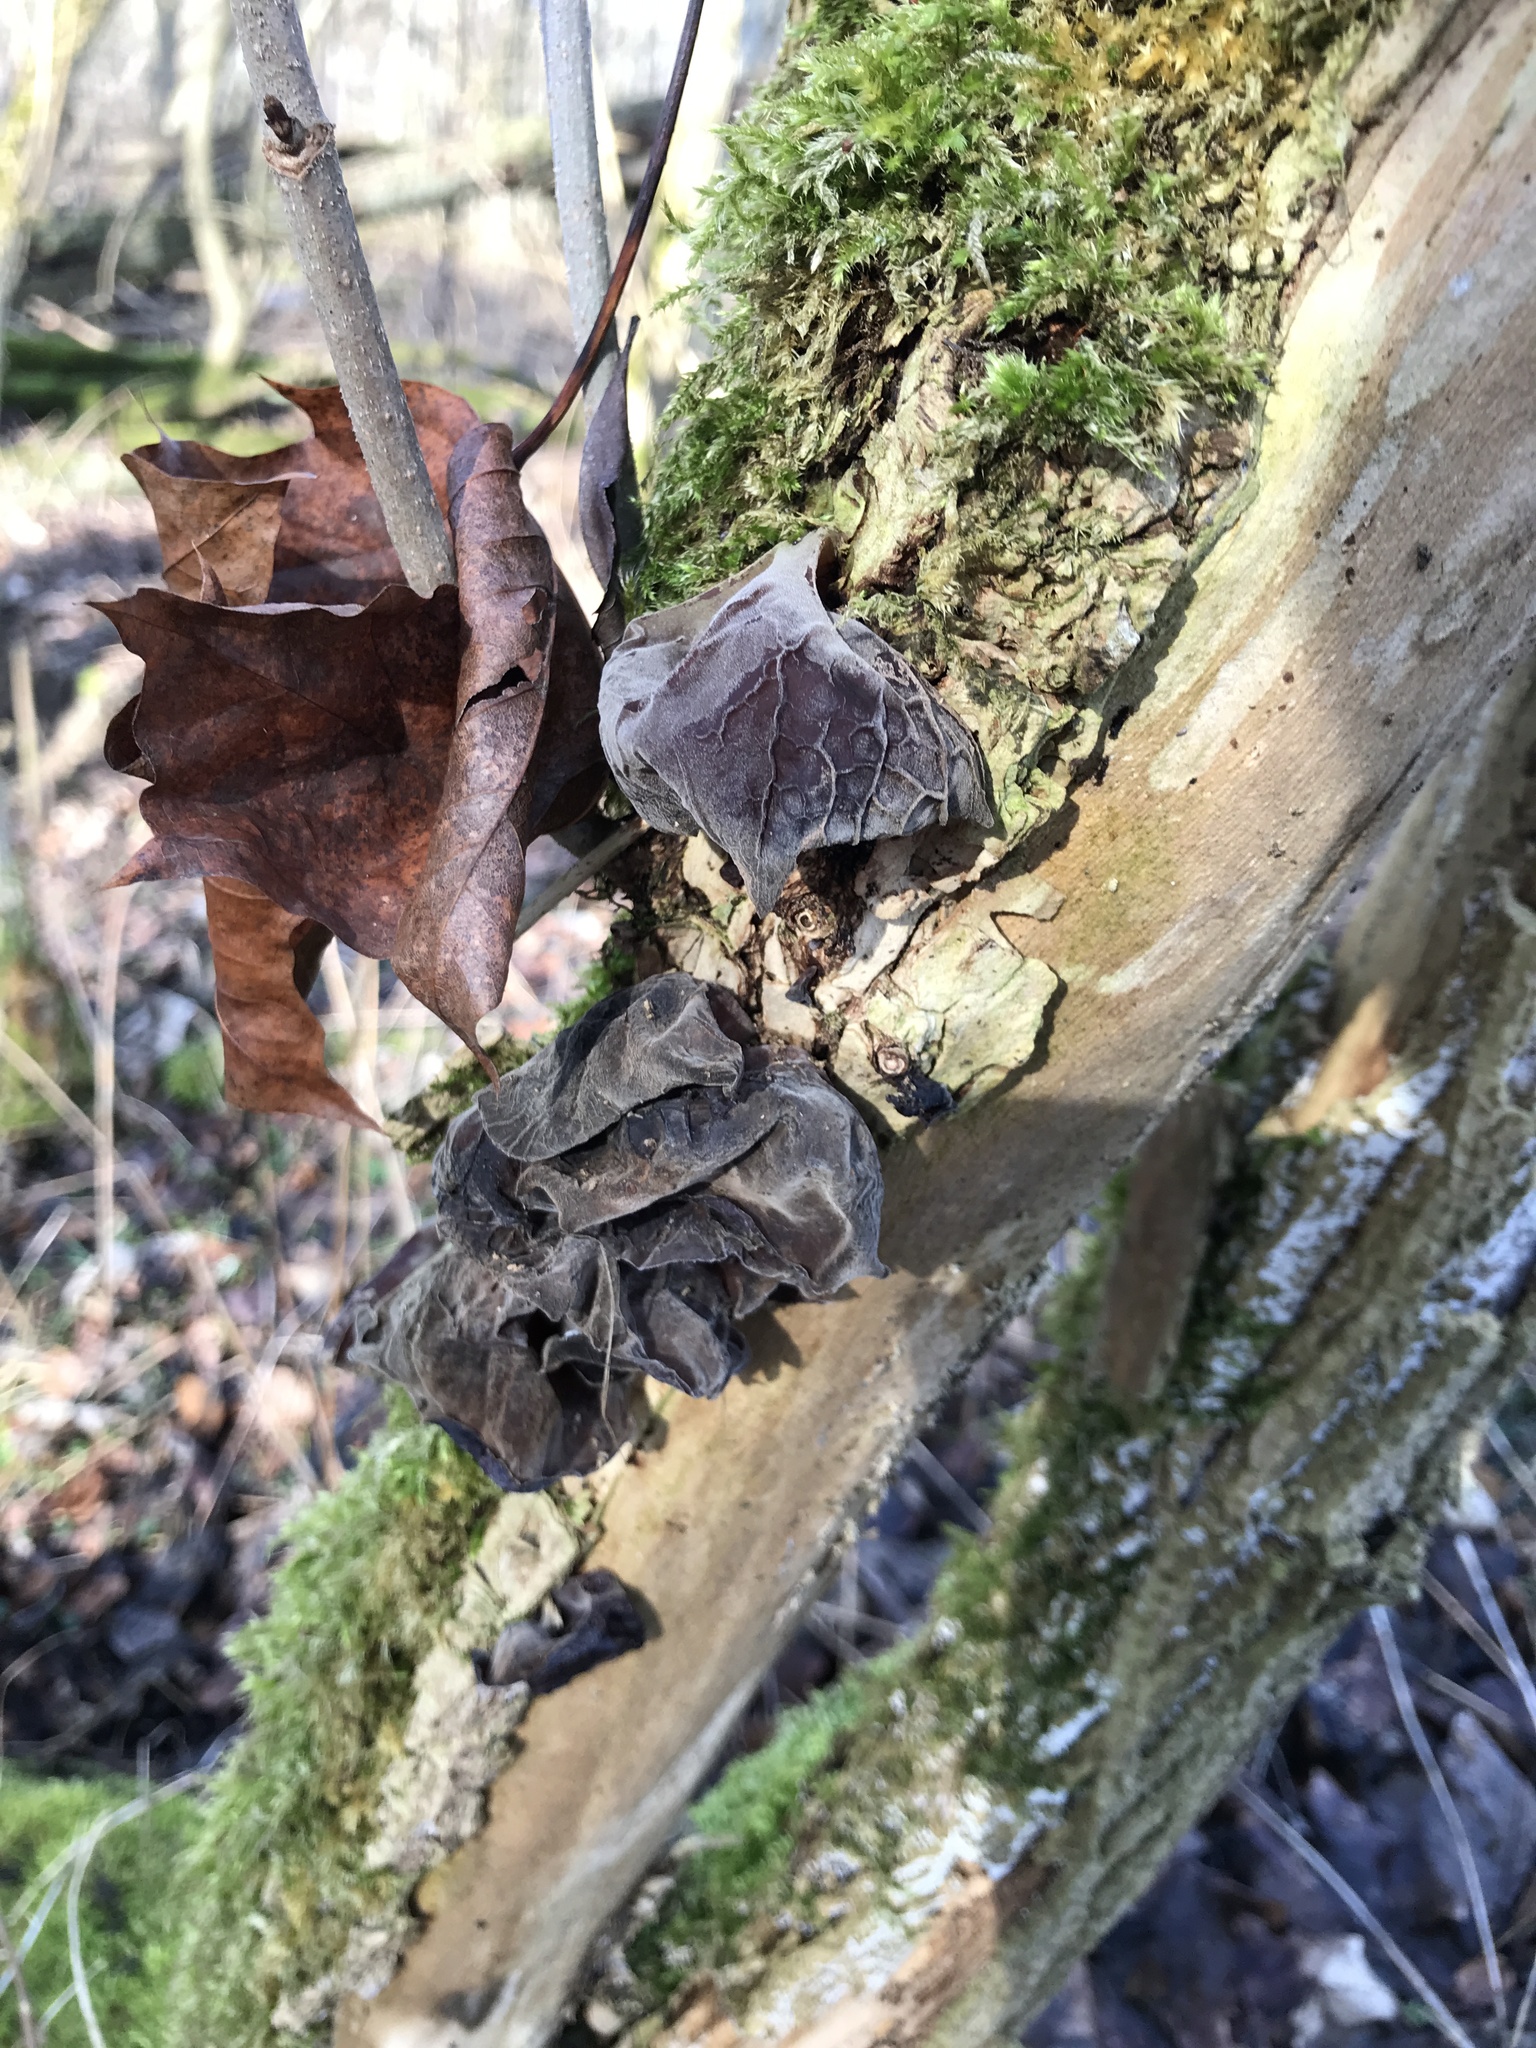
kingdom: Fungi
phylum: Basidiomycota
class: Agaricomycetes
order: Auriculariales
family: Auriculariaceae
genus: Auricularia
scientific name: Auricularia auricula-judae
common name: Jelly ear
